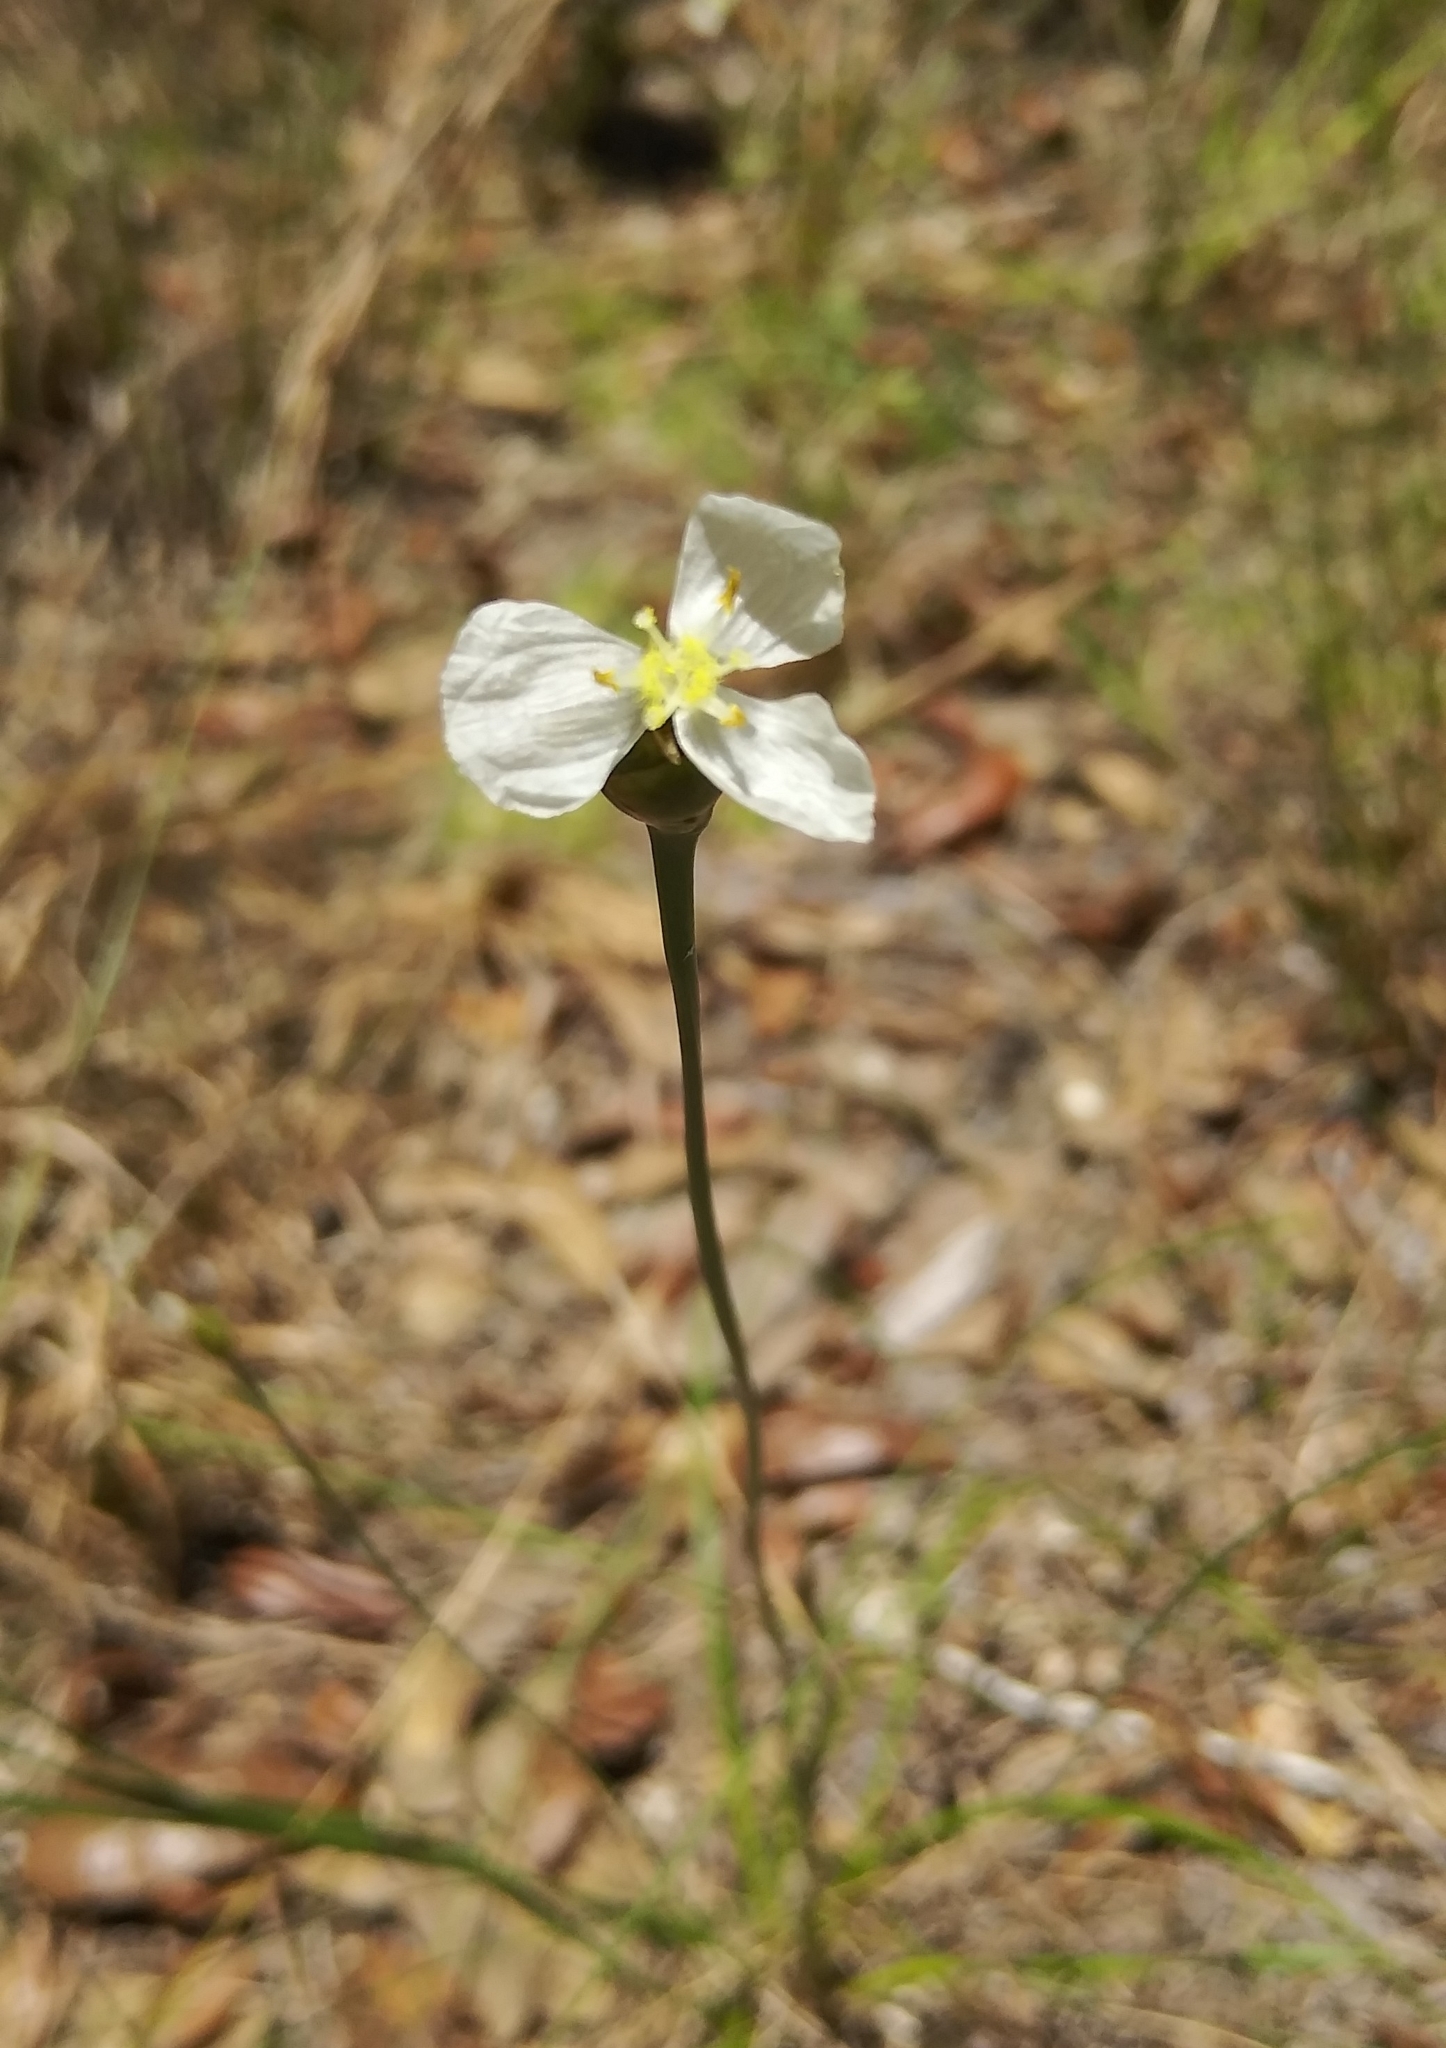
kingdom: Plantae
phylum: Tracheophyta
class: Liliopsida
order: Poales
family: Xyridaceae
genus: Xyris
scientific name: Xyris caroliniana
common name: Carolina yellow-eyed-grass
